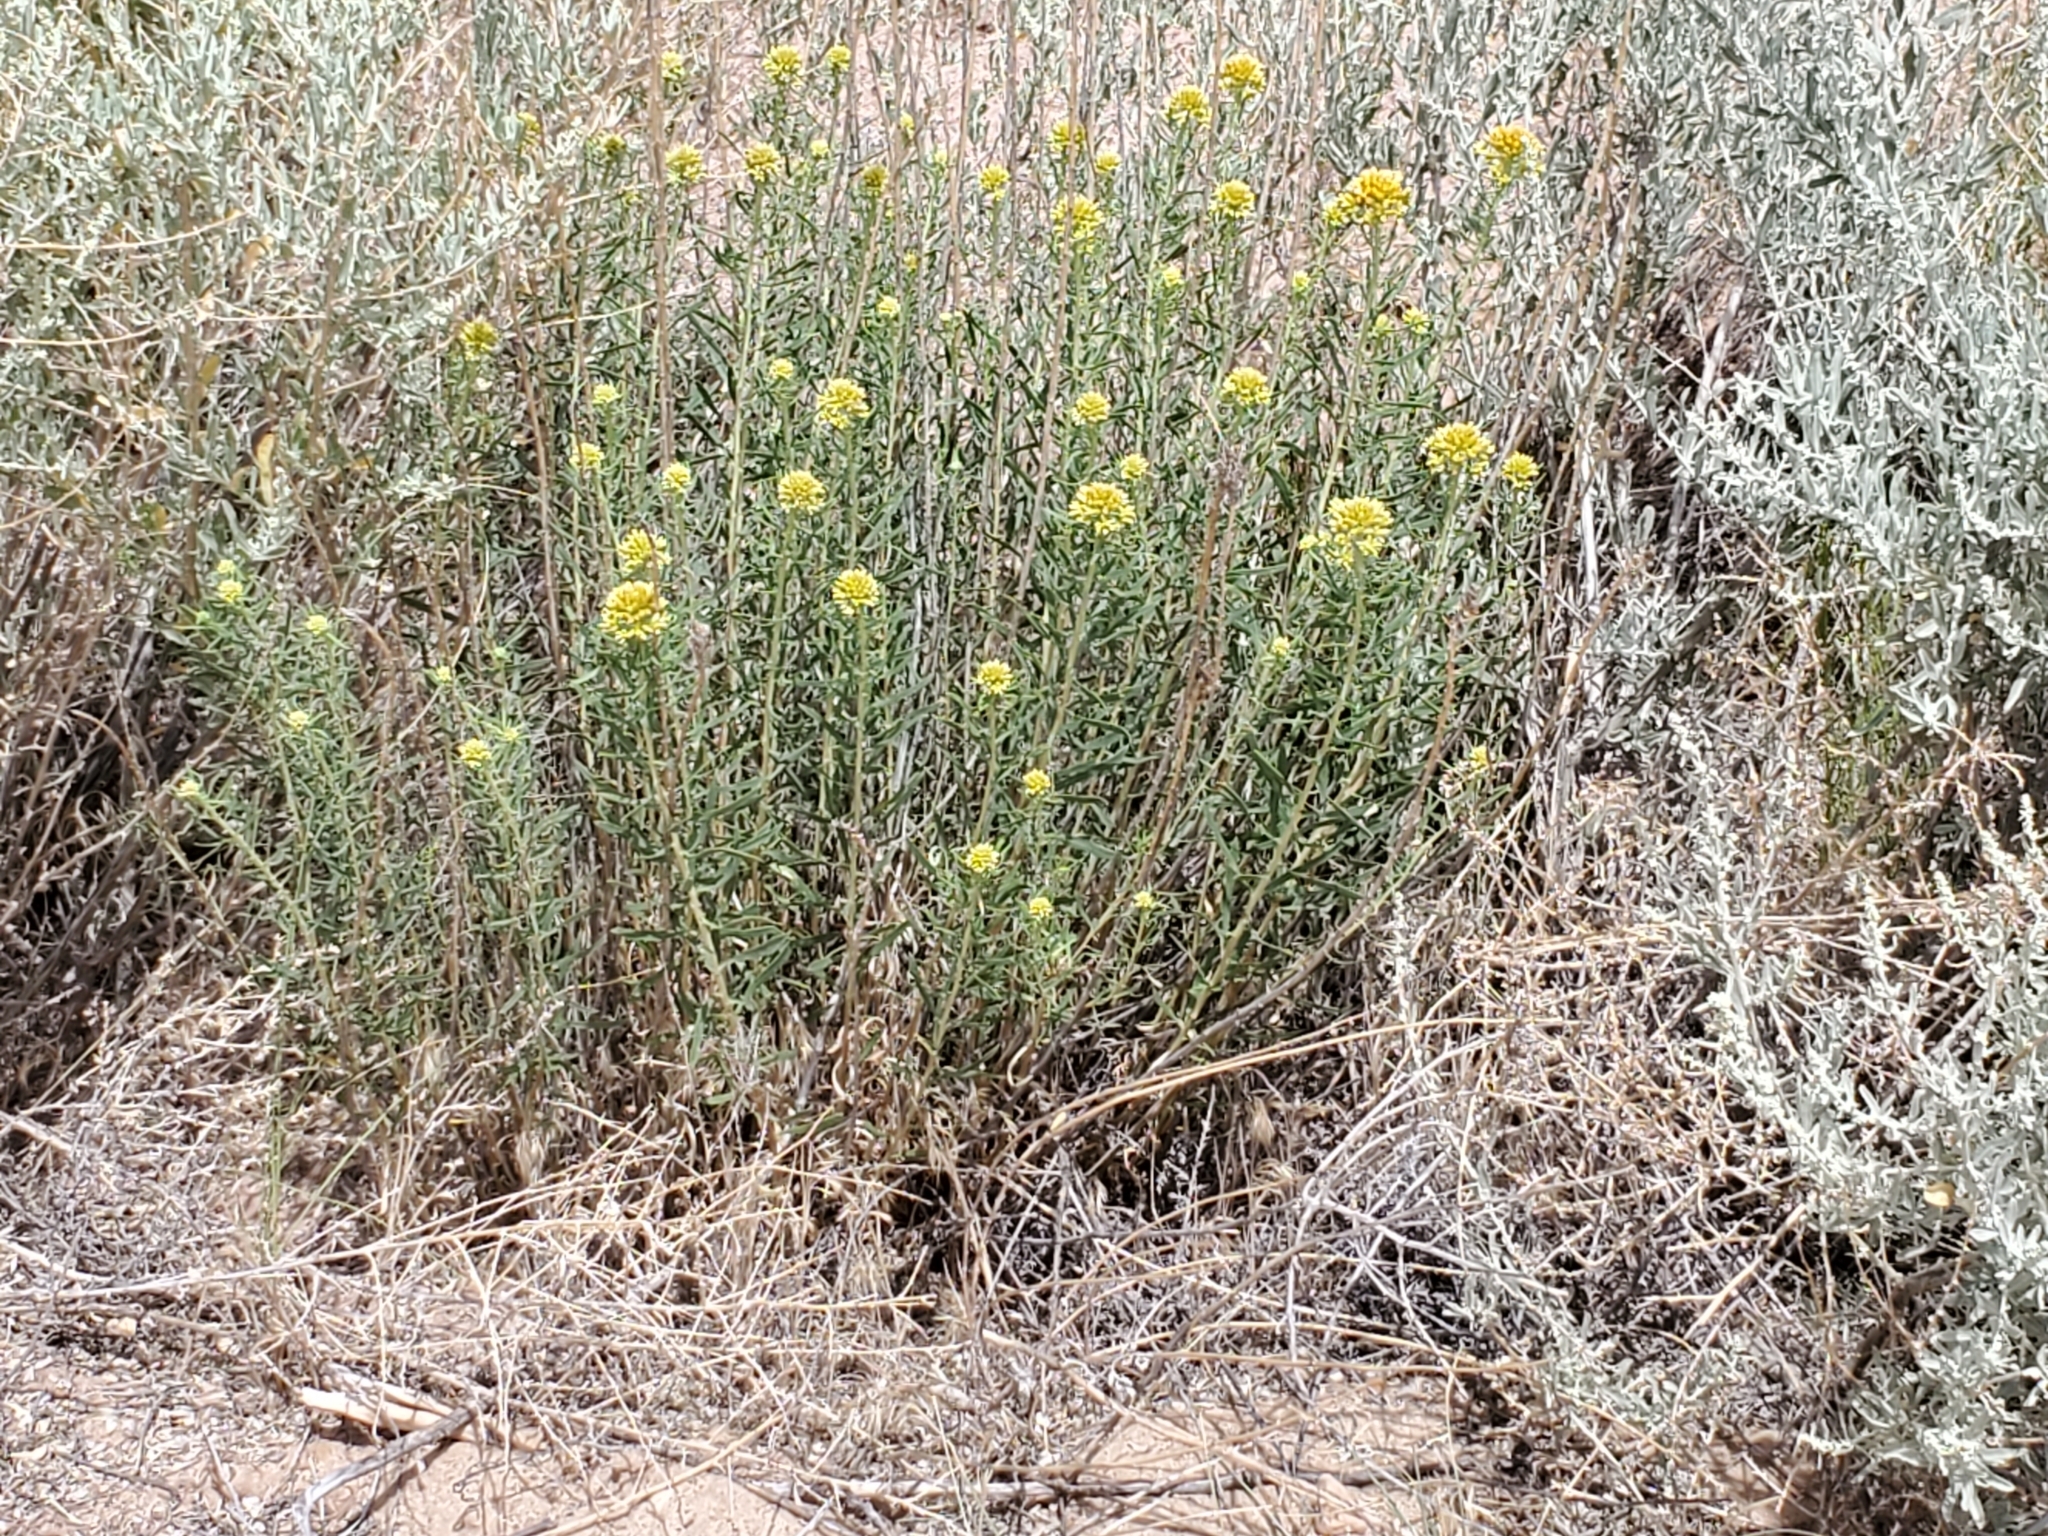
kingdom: Plantae
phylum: Tracheophyta
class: Magnoliopsida
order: Asterales
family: Asteraceae
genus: Isocoma
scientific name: Isocoma pluriflora
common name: Southern jimmyweed
